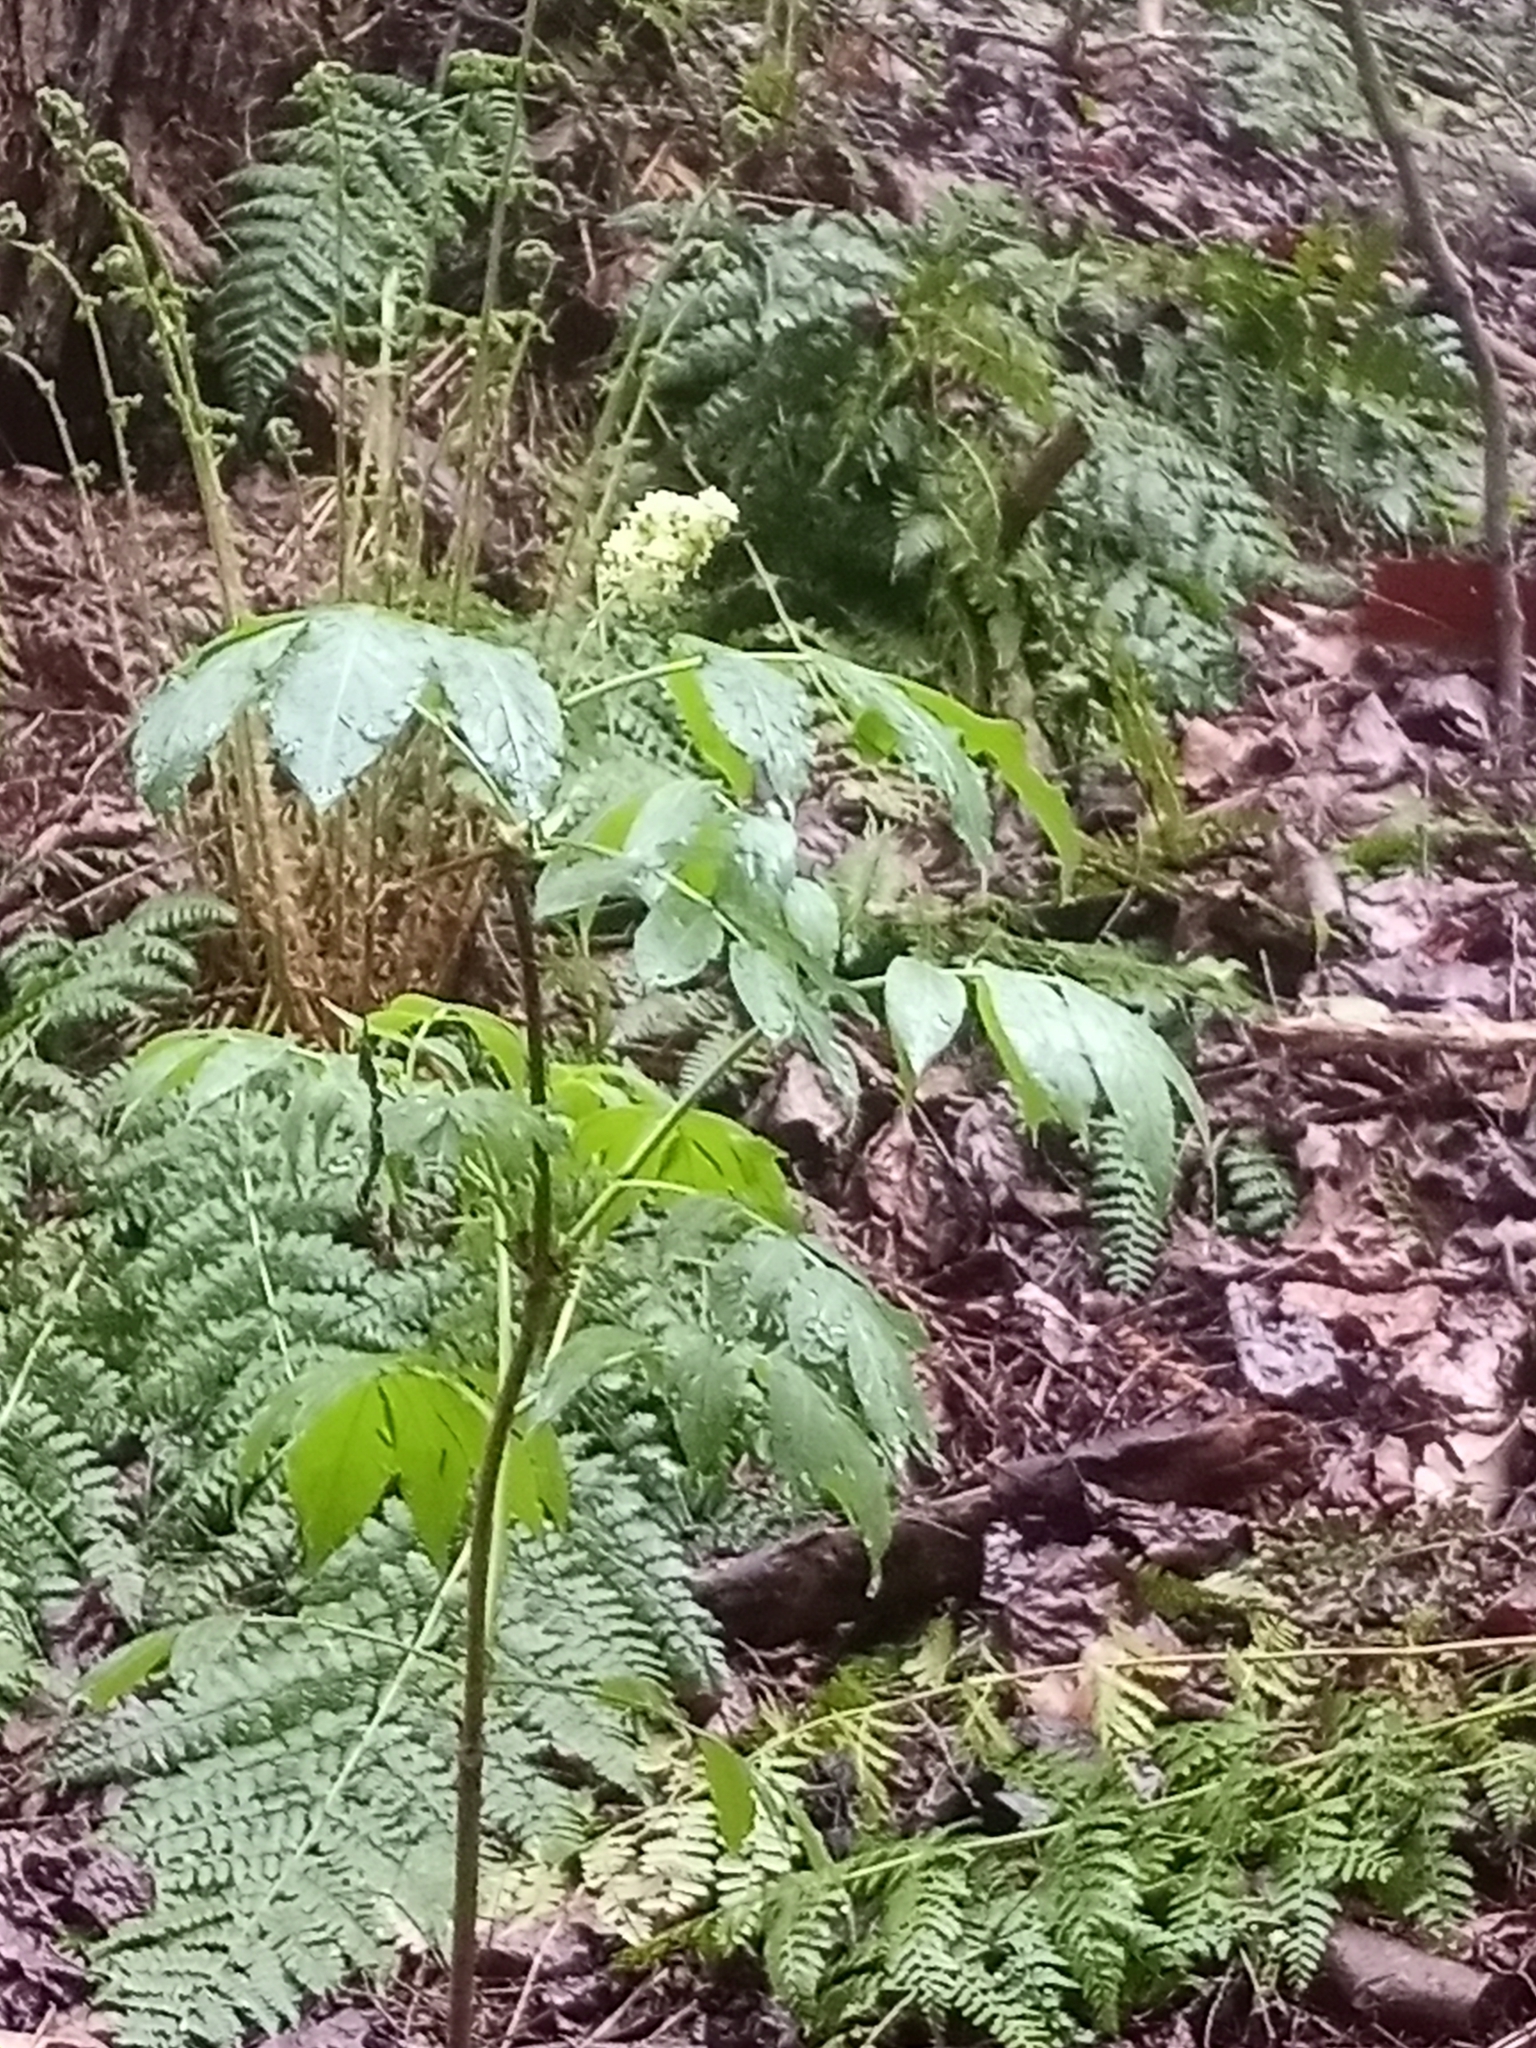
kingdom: Plantae
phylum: Tracheophyta
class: Magnoliopsida
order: Dipsacales
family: Viburnaceae
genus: Sambucus
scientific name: Sambucus racemosa
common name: Red-berried elder
